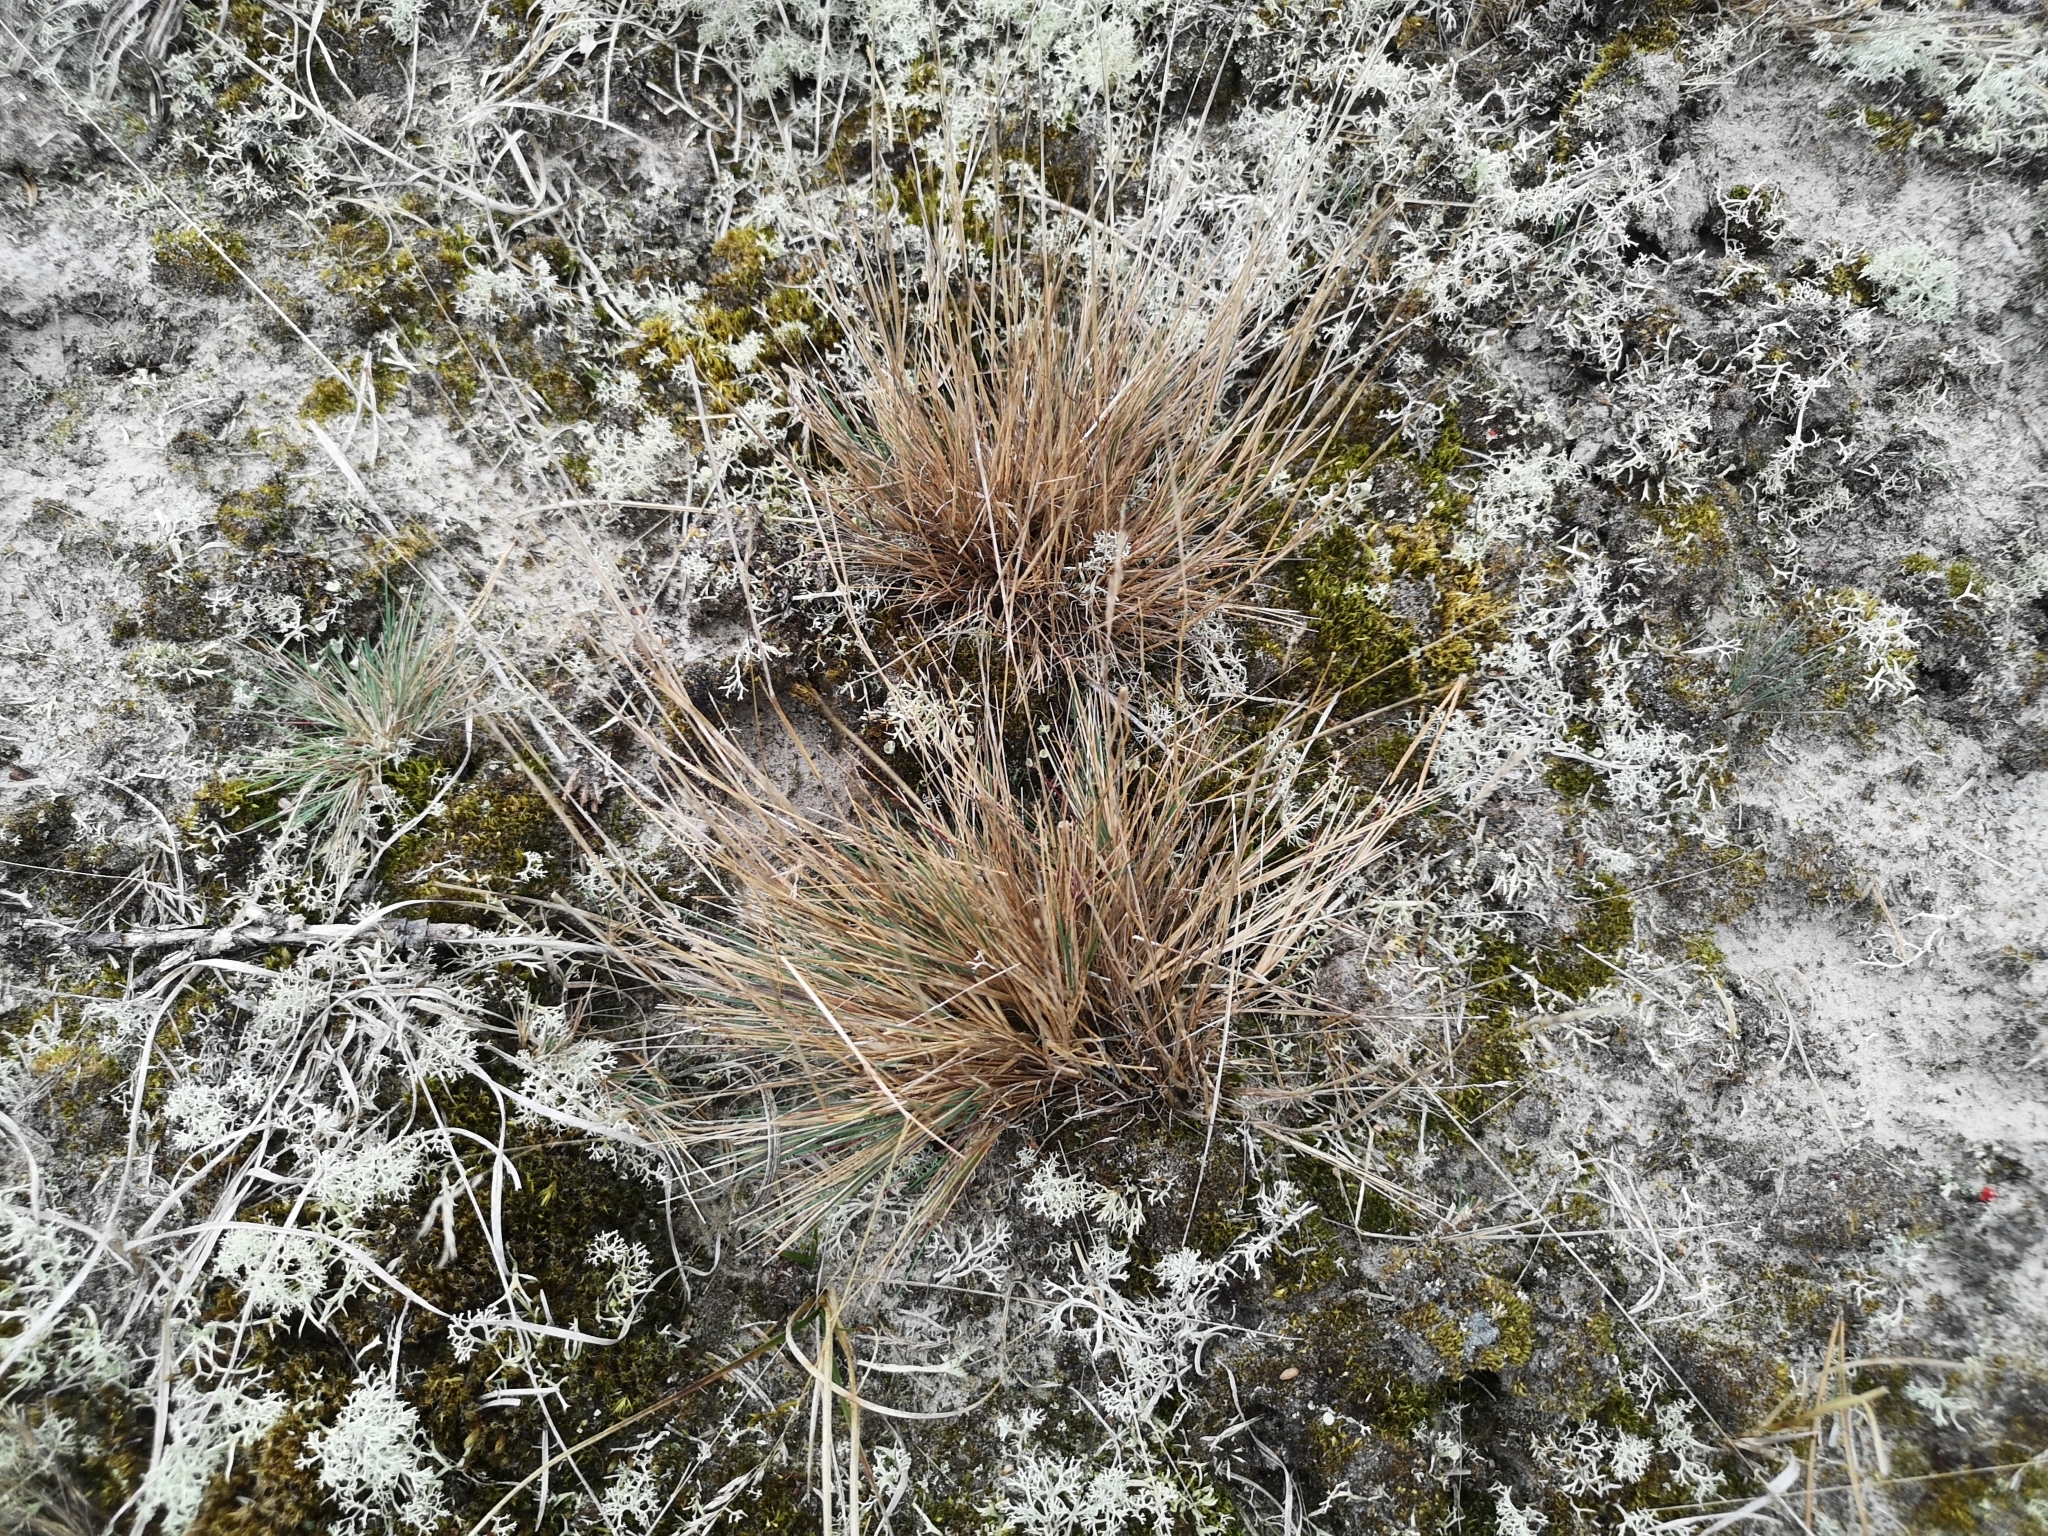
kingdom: Plantae
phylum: Tracheophyta
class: Liliopsida
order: Poales
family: Poaceae
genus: Corynephorus
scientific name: Corynephorus canescens
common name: Grey hair-grass
